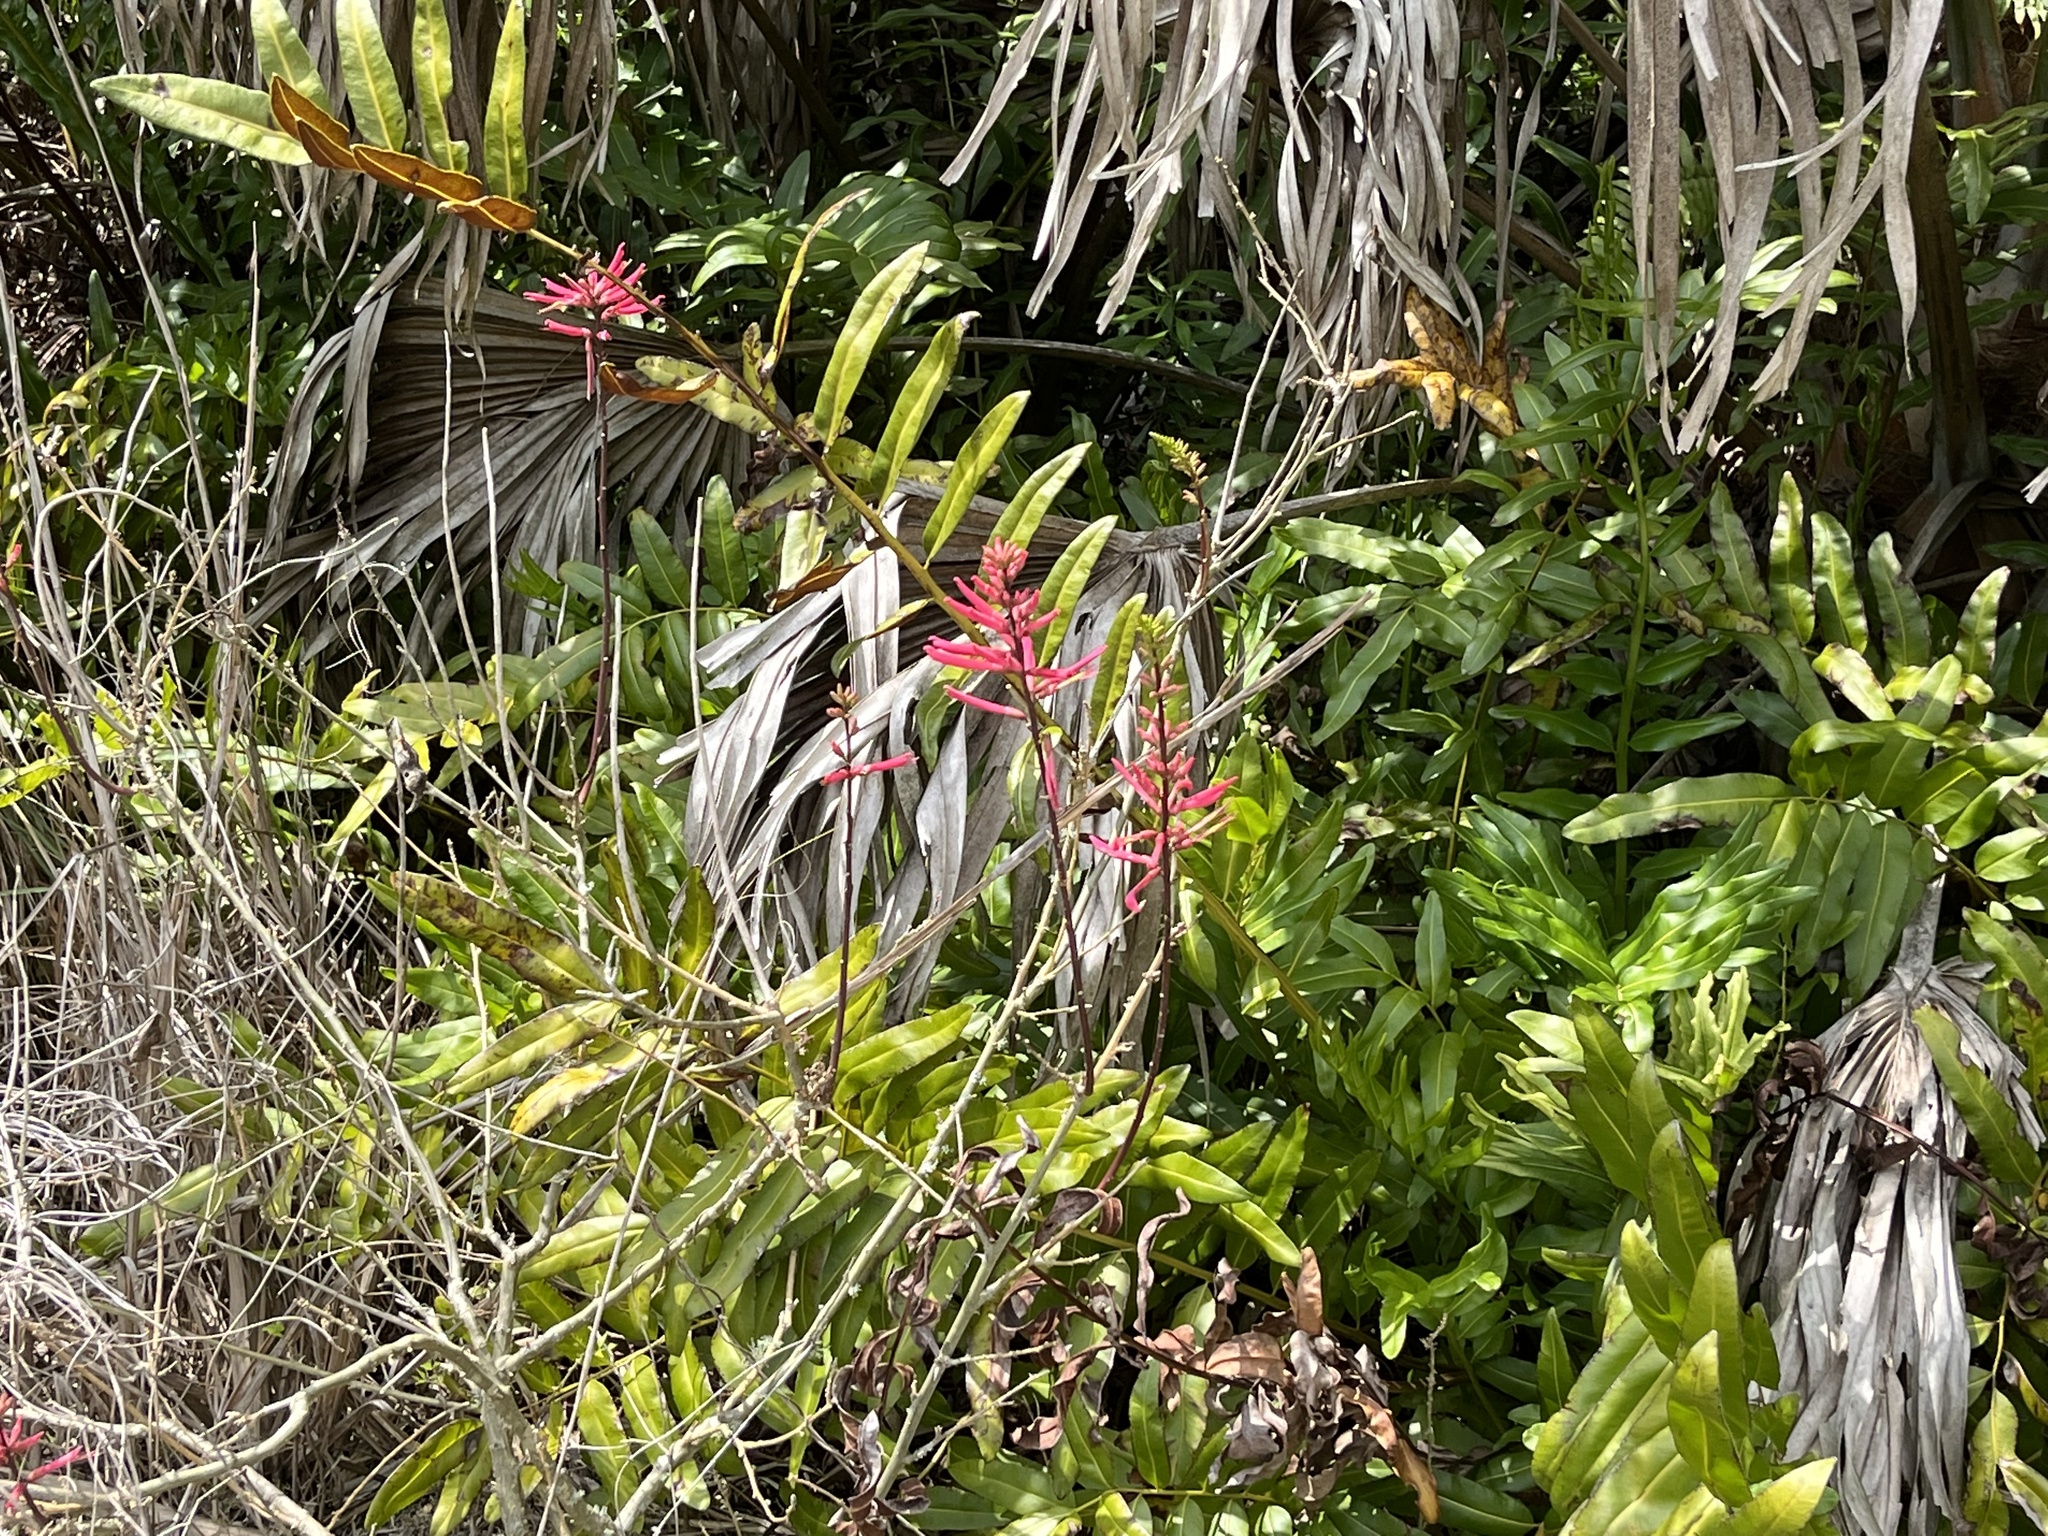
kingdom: Plantae
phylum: Tracheophyta
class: Magnoliopsida
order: Fabales
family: Fabaceae
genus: Erythrina
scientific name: Erythrina herbacea
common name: Coral-bean
